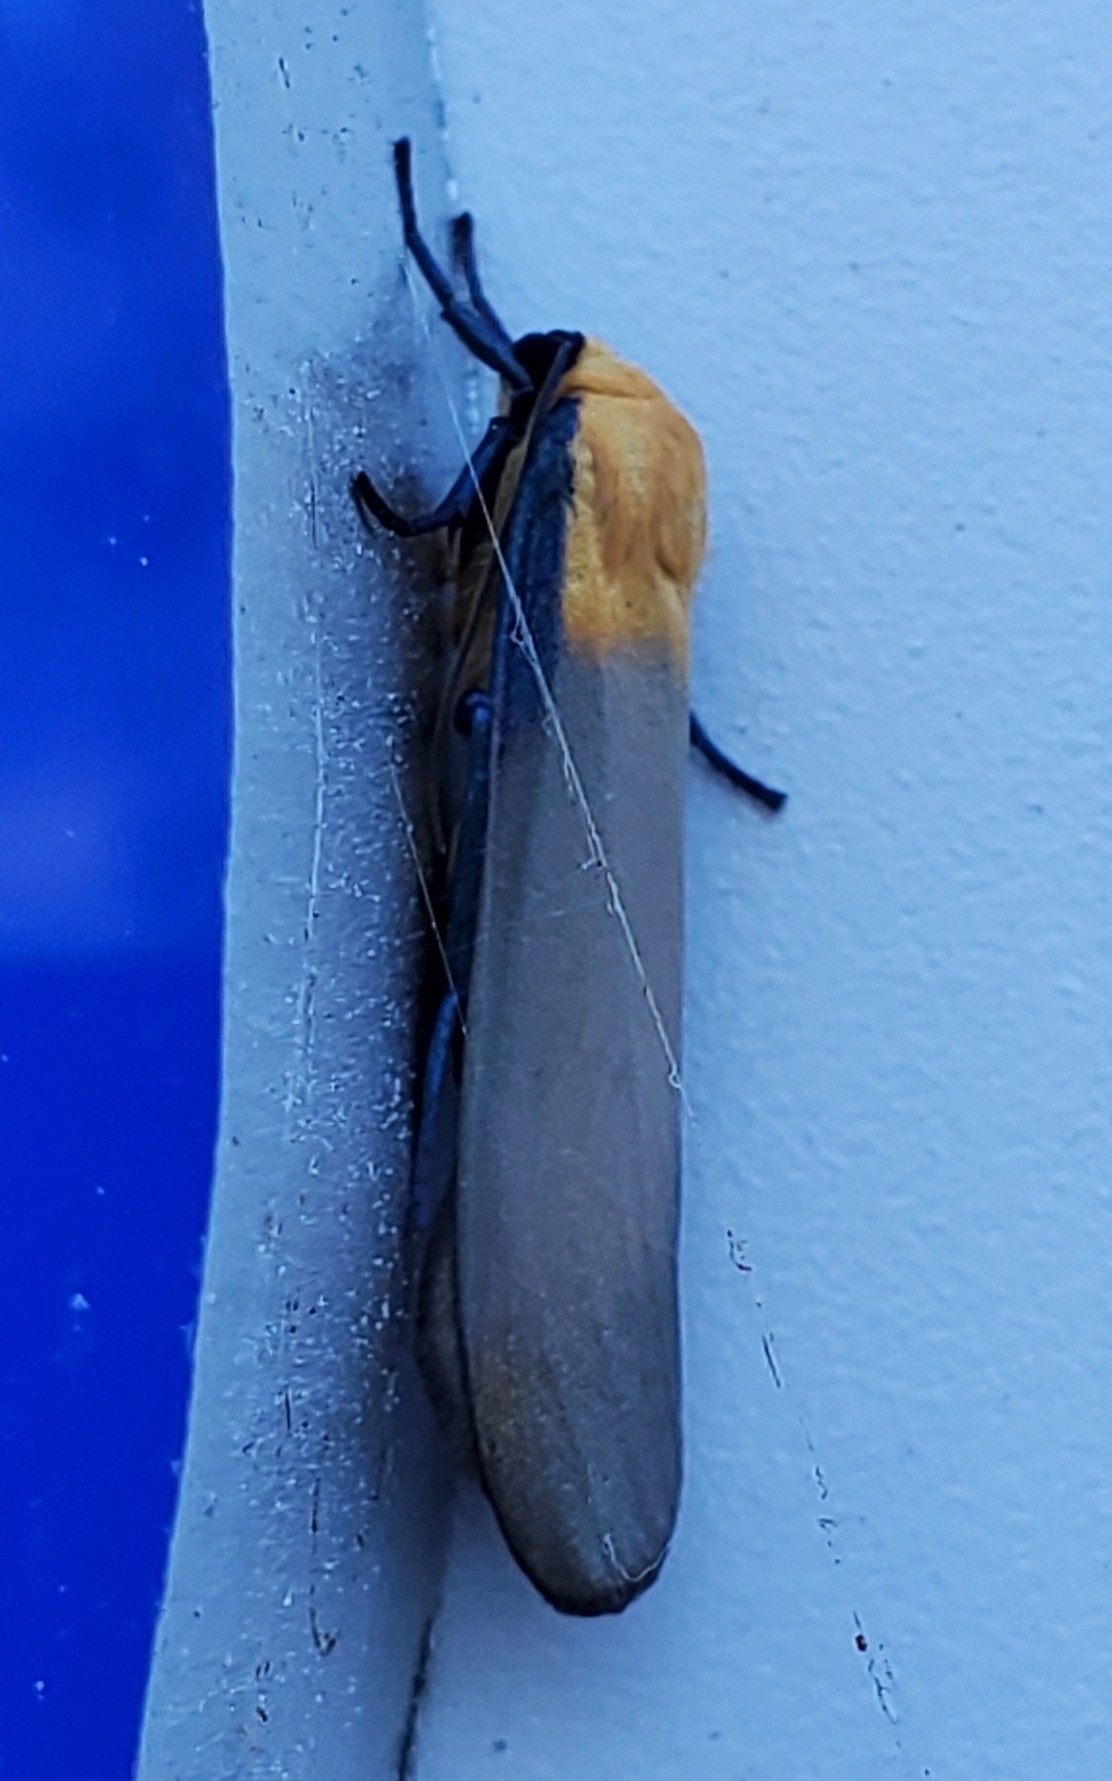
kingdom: Animalia
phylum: Arthropoda
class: Insecta
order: Lepidoptera
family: Erebidae
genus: Lithosia
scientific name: Lithosia quadra
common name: Four-spotted footman
